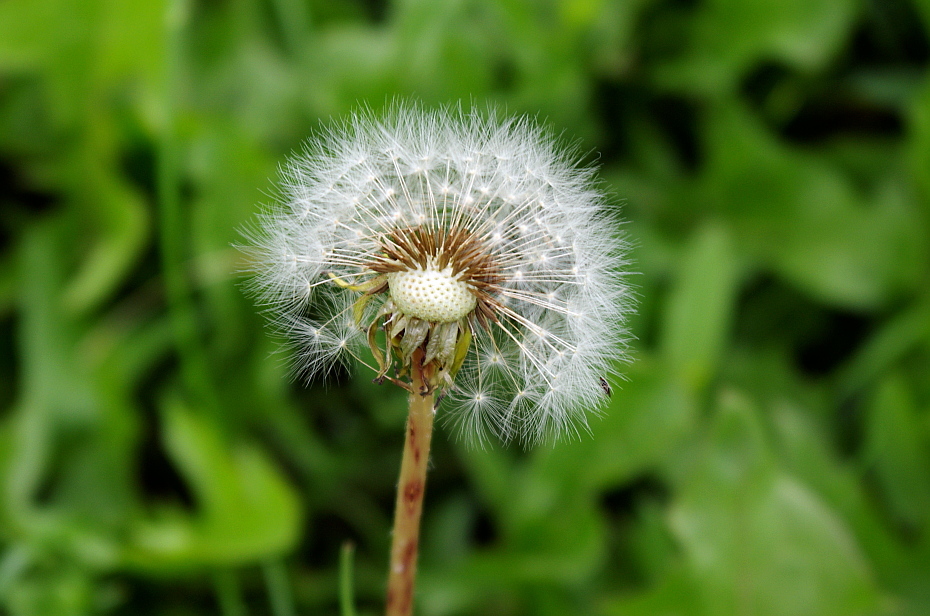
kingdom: Plantae
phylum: Tracheophyta
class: Magnoliopsida
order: Asterales
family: Asteraceae
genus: Taraxacum
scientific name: Taraxacum officinale
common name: Common dandelion
